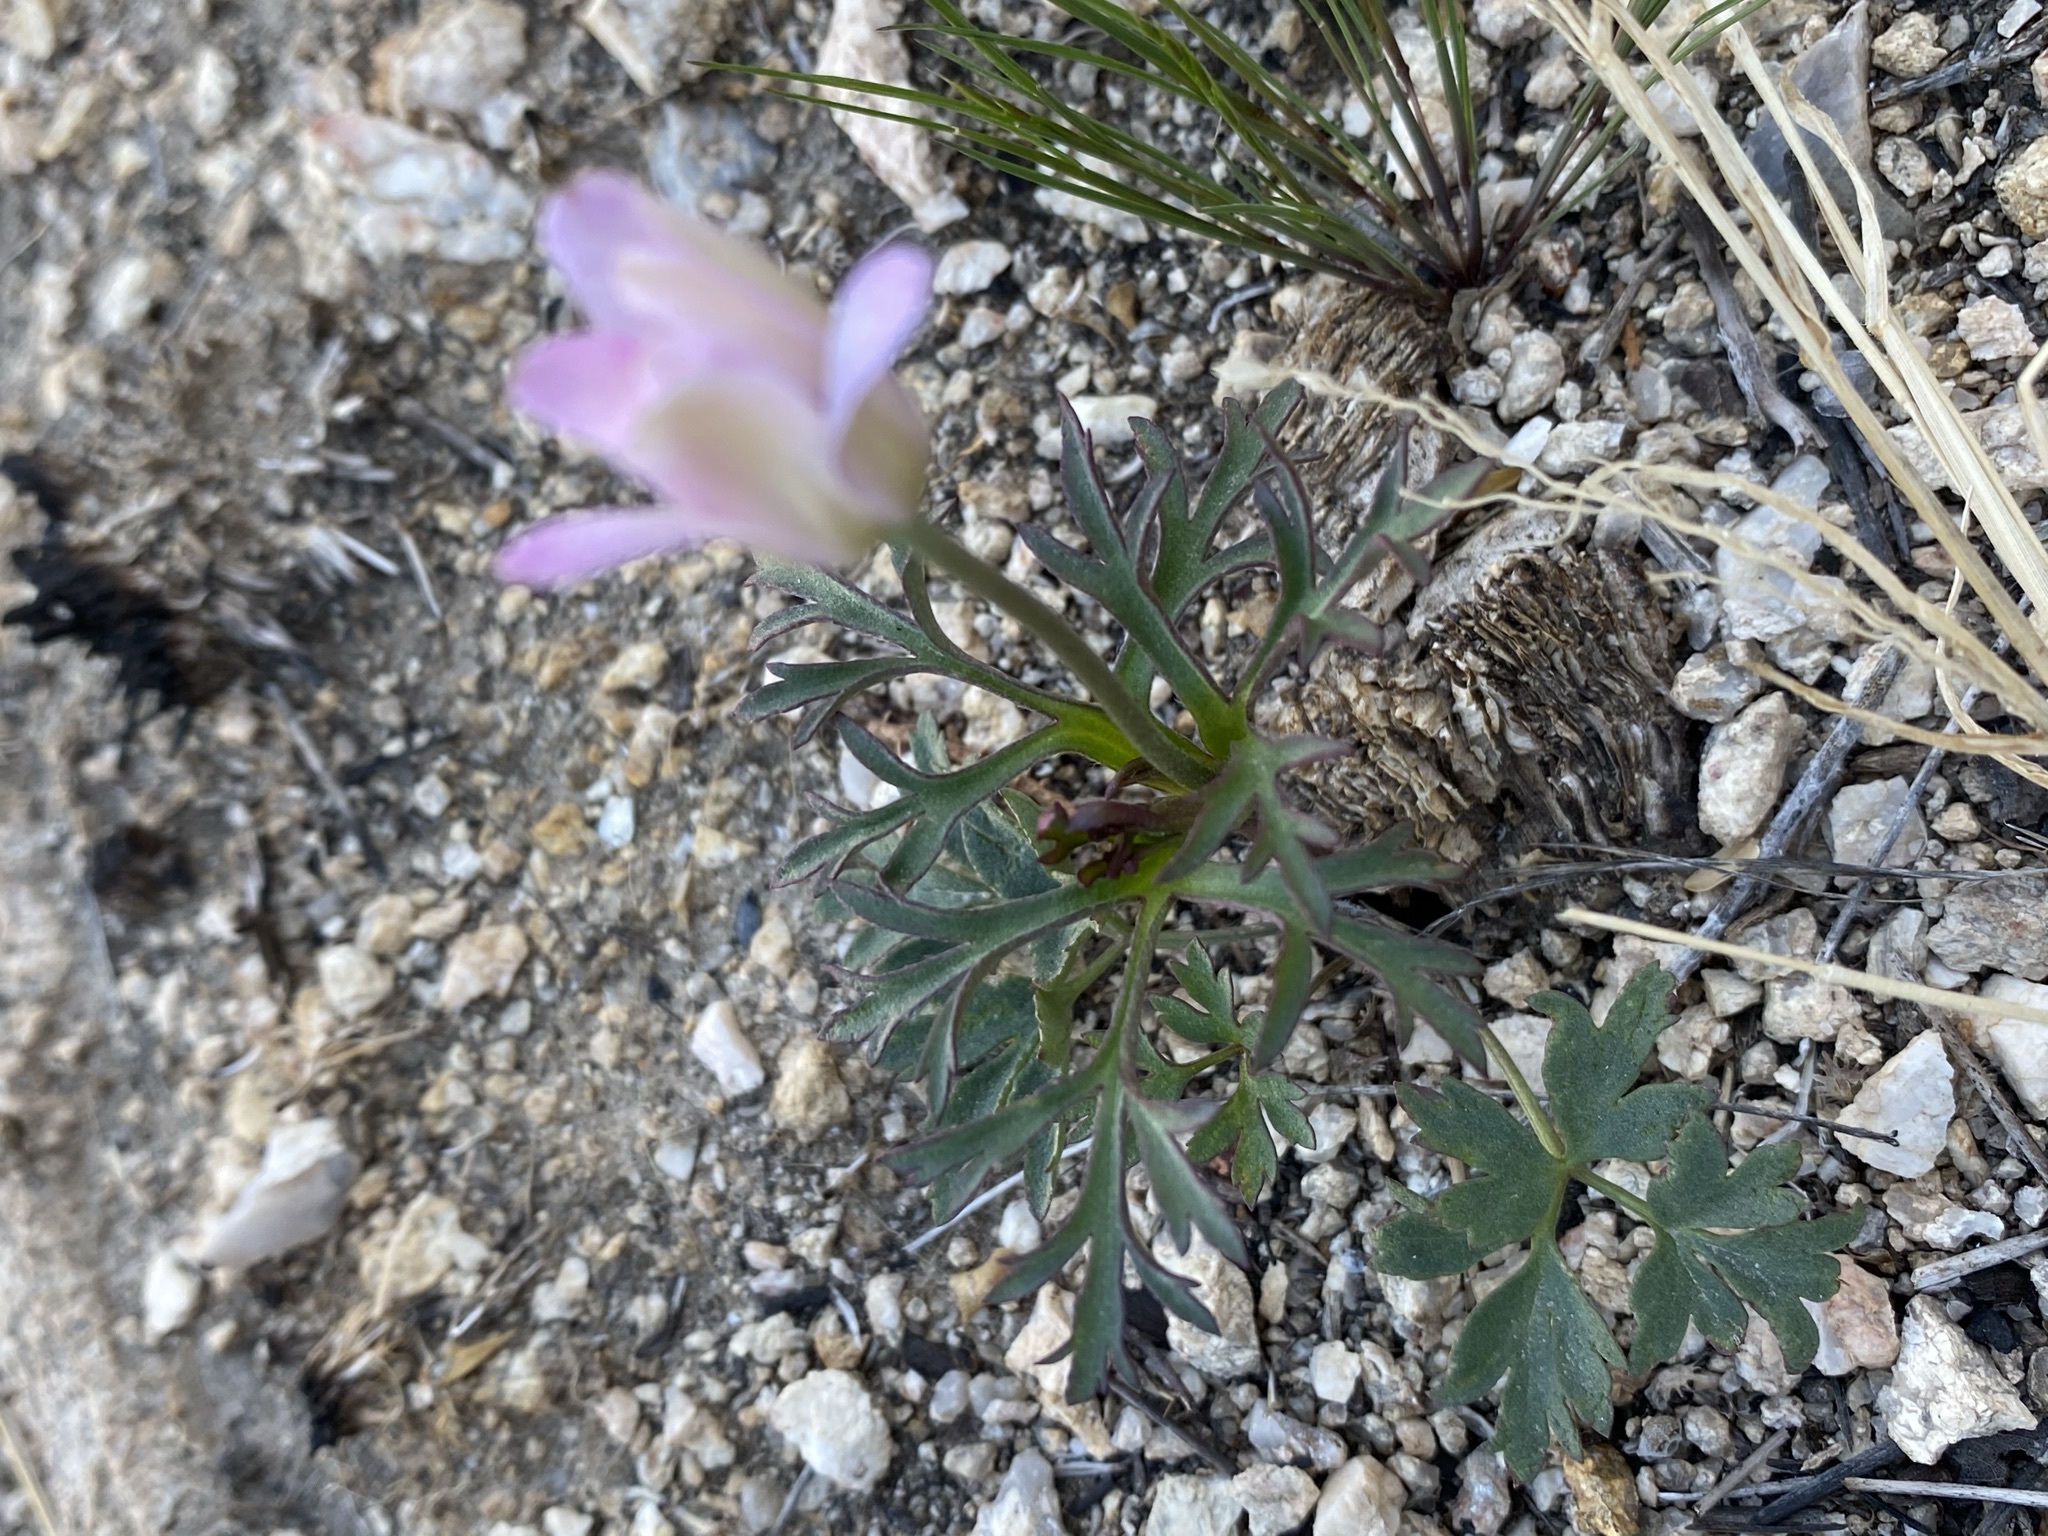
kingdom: Plantae
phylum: Tracheophyta
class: Magnoliopsida
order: Ranunculales
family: Ranunculaceae
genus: Anemone
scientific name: Anemone tuberosa
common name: Desert anemone
